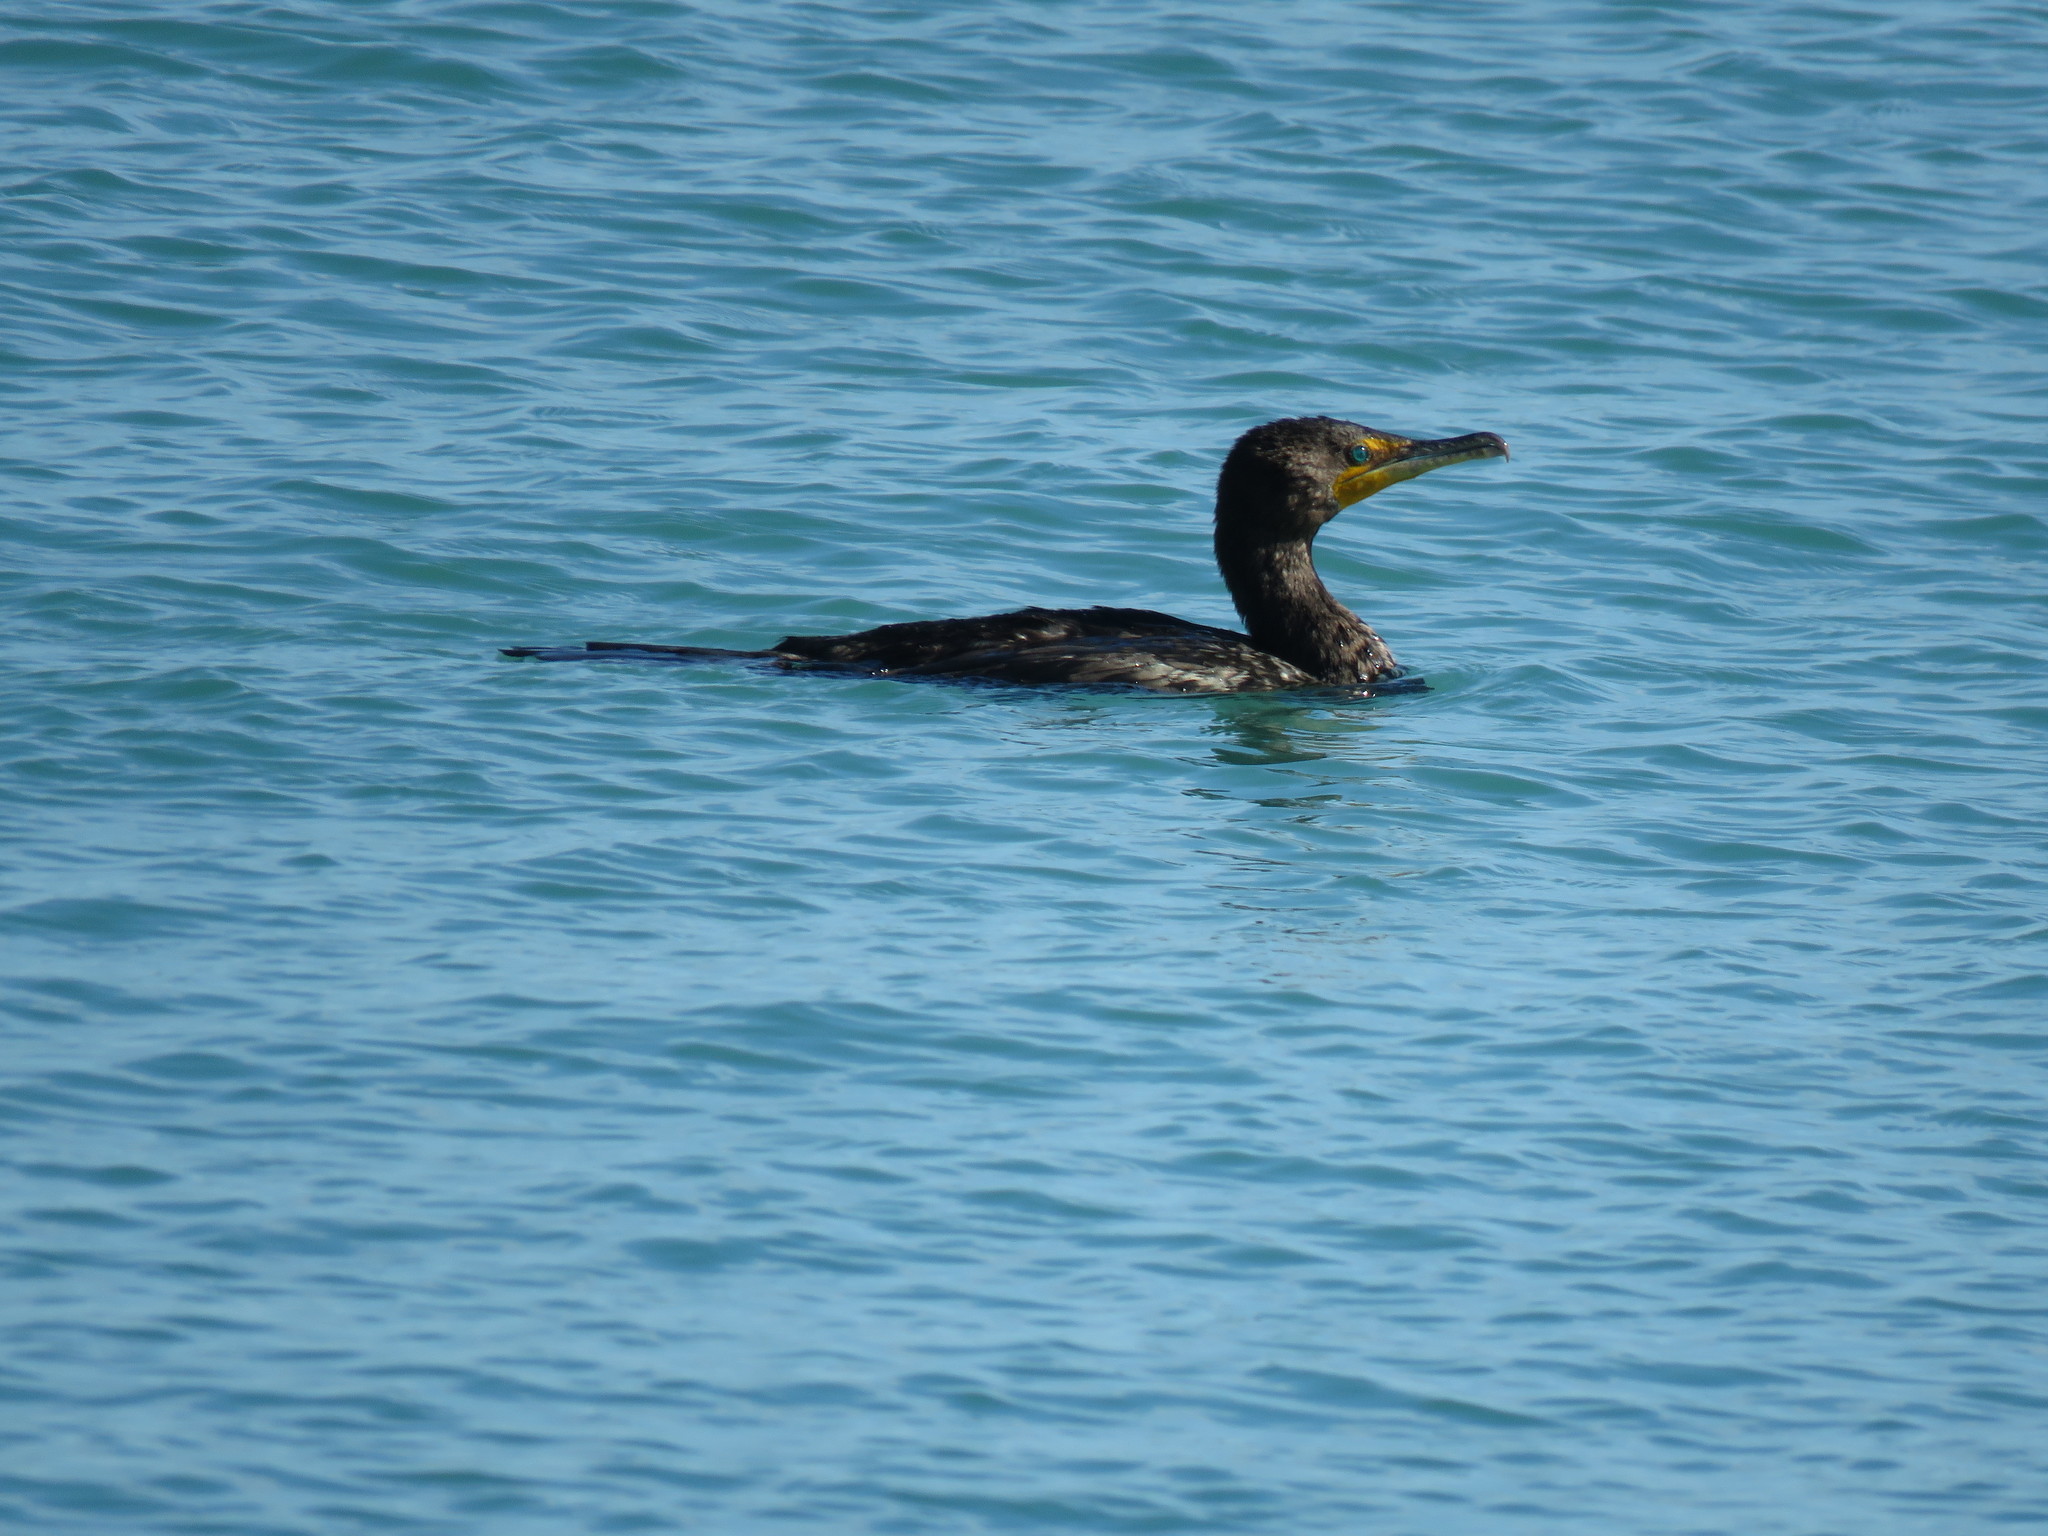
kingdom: Animalia
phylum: Chordata
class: Aves
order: Suliformes
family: Phalacrocoracidae
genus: Phalacrocorax
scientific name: Phalacrocorax auritus
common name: Double-crested cormorant
